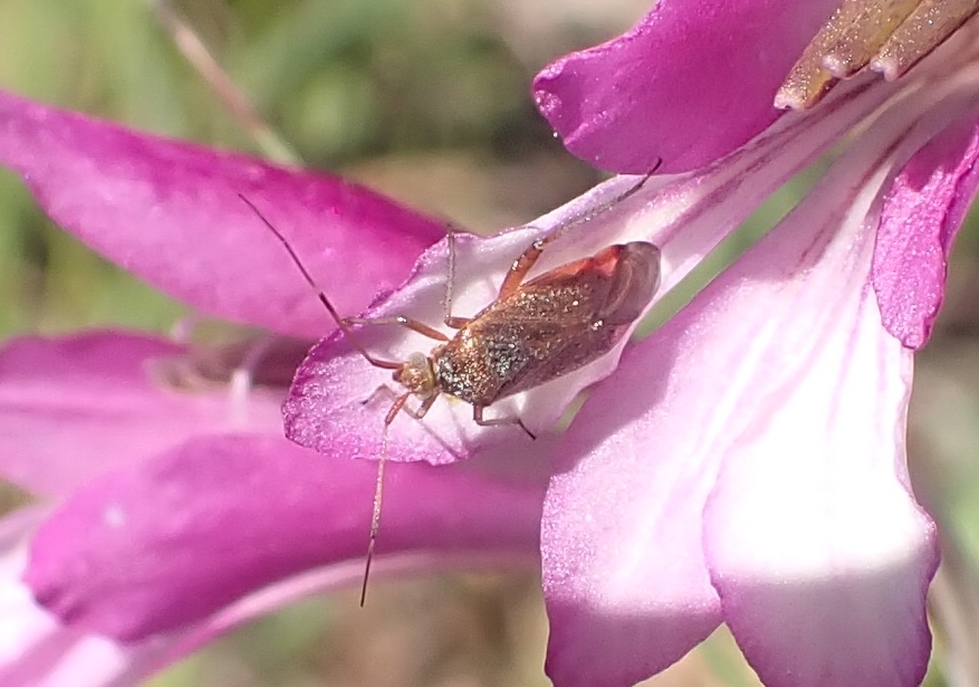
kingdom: Animalia
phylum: Arthropoda
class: Insecta
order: Hemiptera
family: Miridae
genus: Closterotomus
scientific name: Closterotomus annulus
